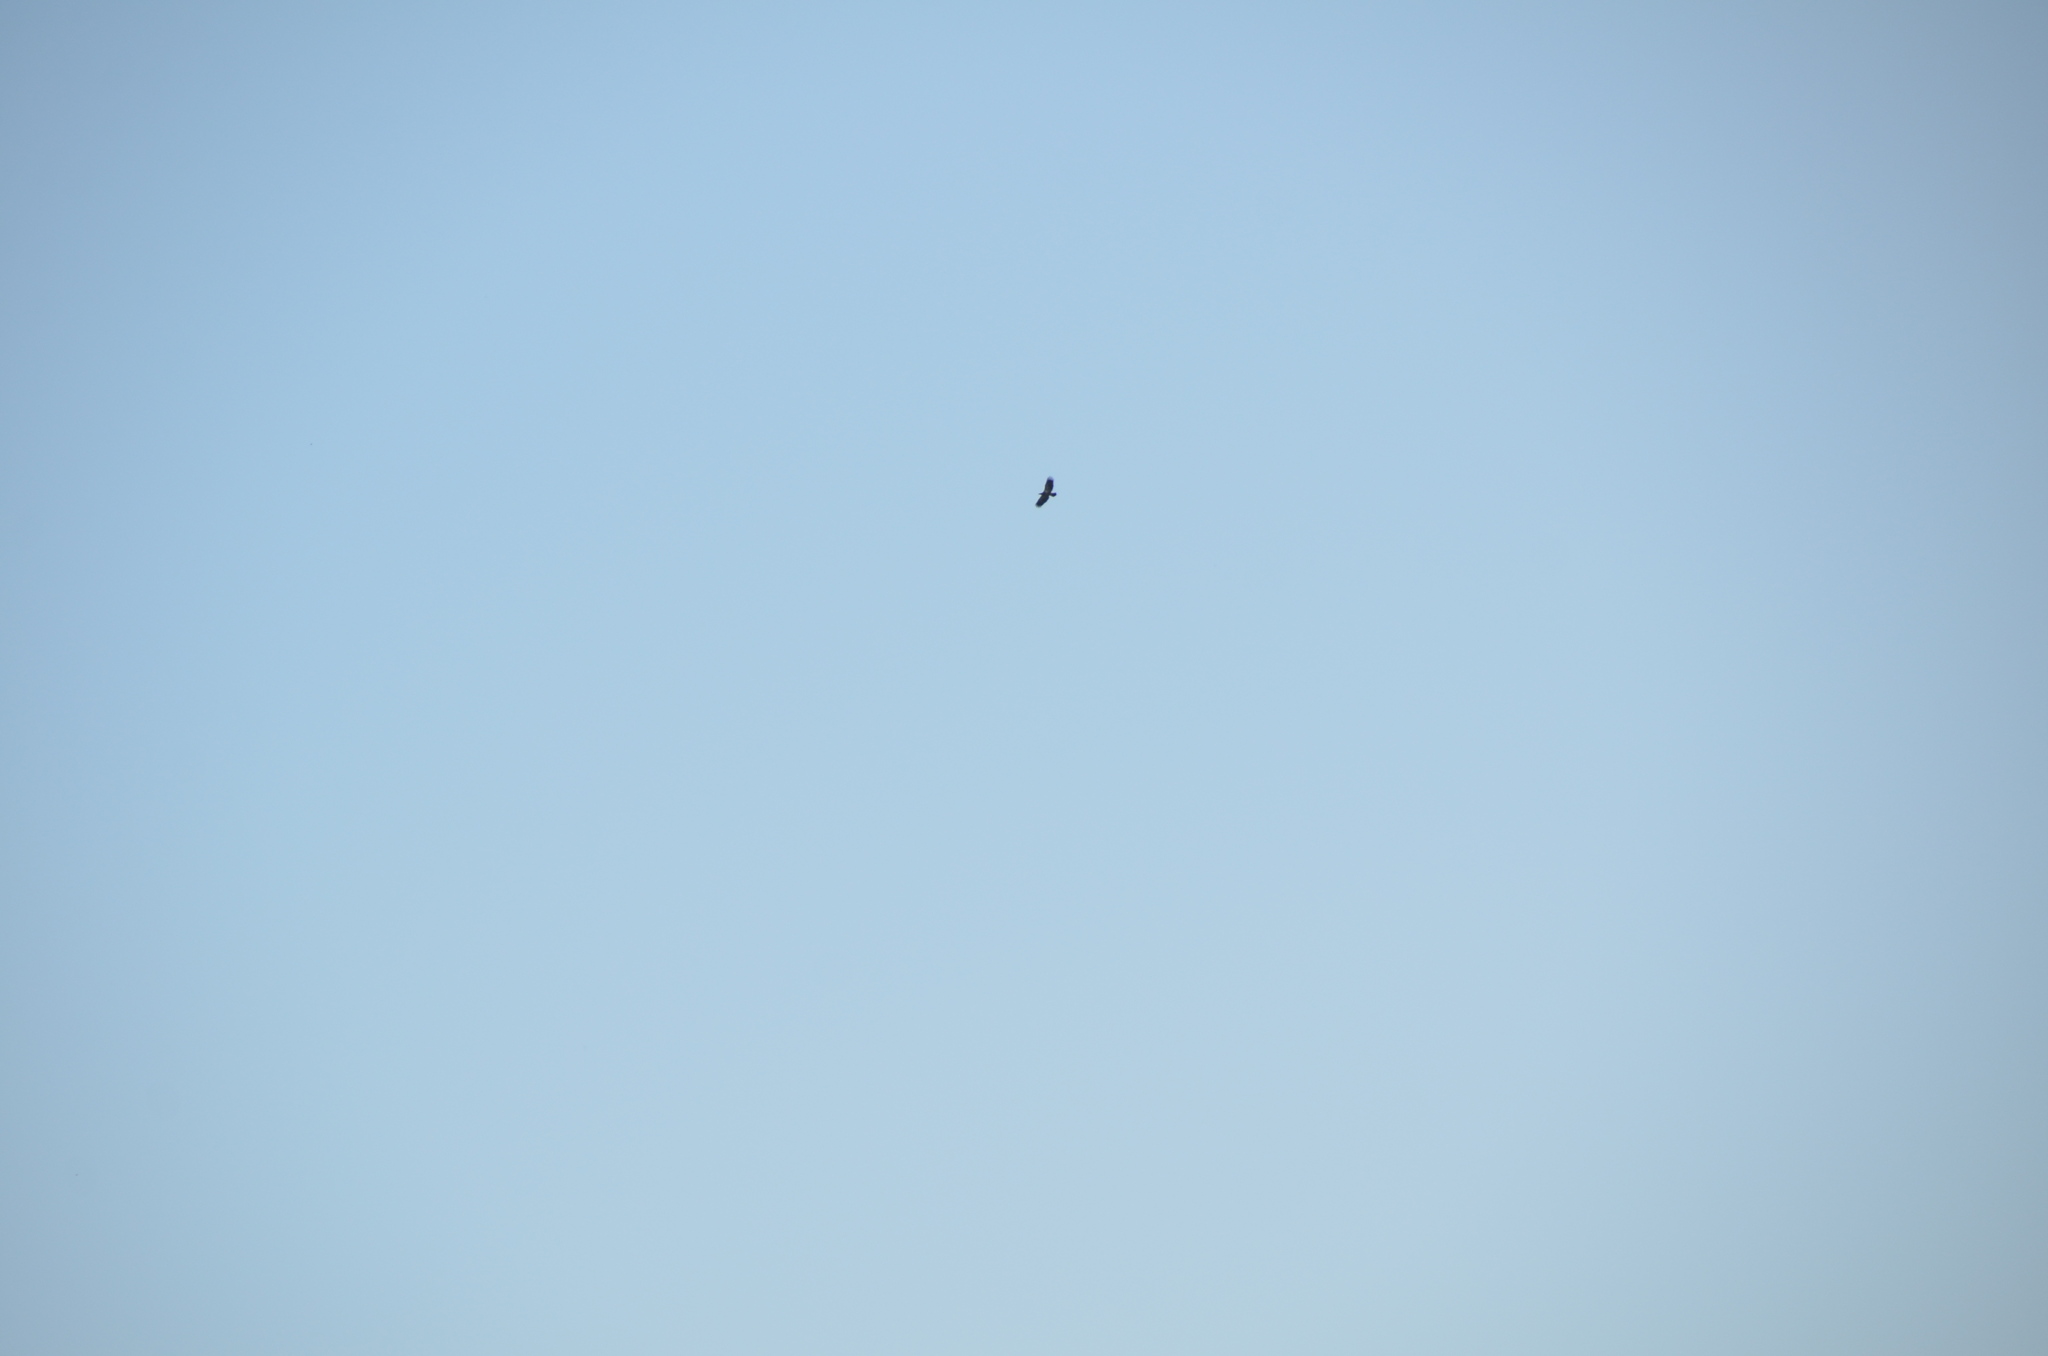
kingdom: Animalia
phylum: Chordata
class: Aves
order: Accipitriformes
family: Accipitridae
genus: Haliaeetus
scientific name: Haliaeetus leucocephalus
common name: Bald eagle
